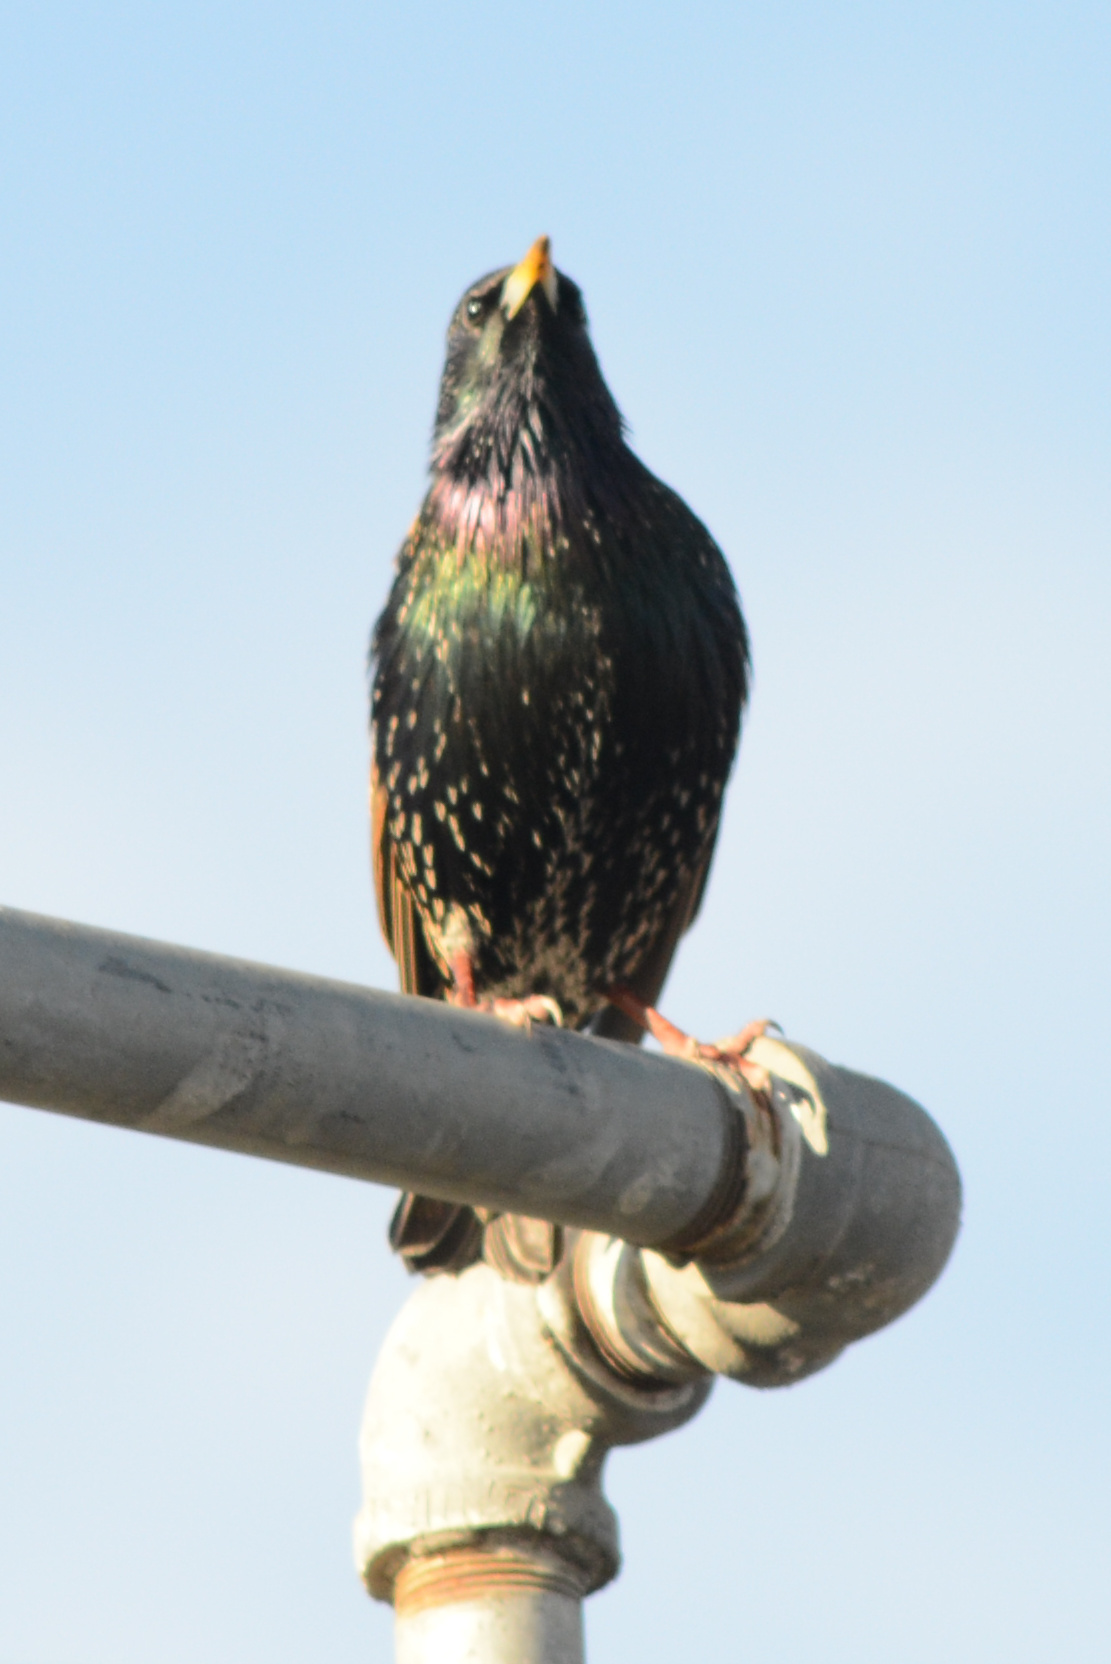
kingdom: Animalia
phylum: Chordata
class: Aves
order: Passeriformes
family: Sturnidae
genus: Sturnus
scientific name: Sturnus vulgaris
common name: Common starling
